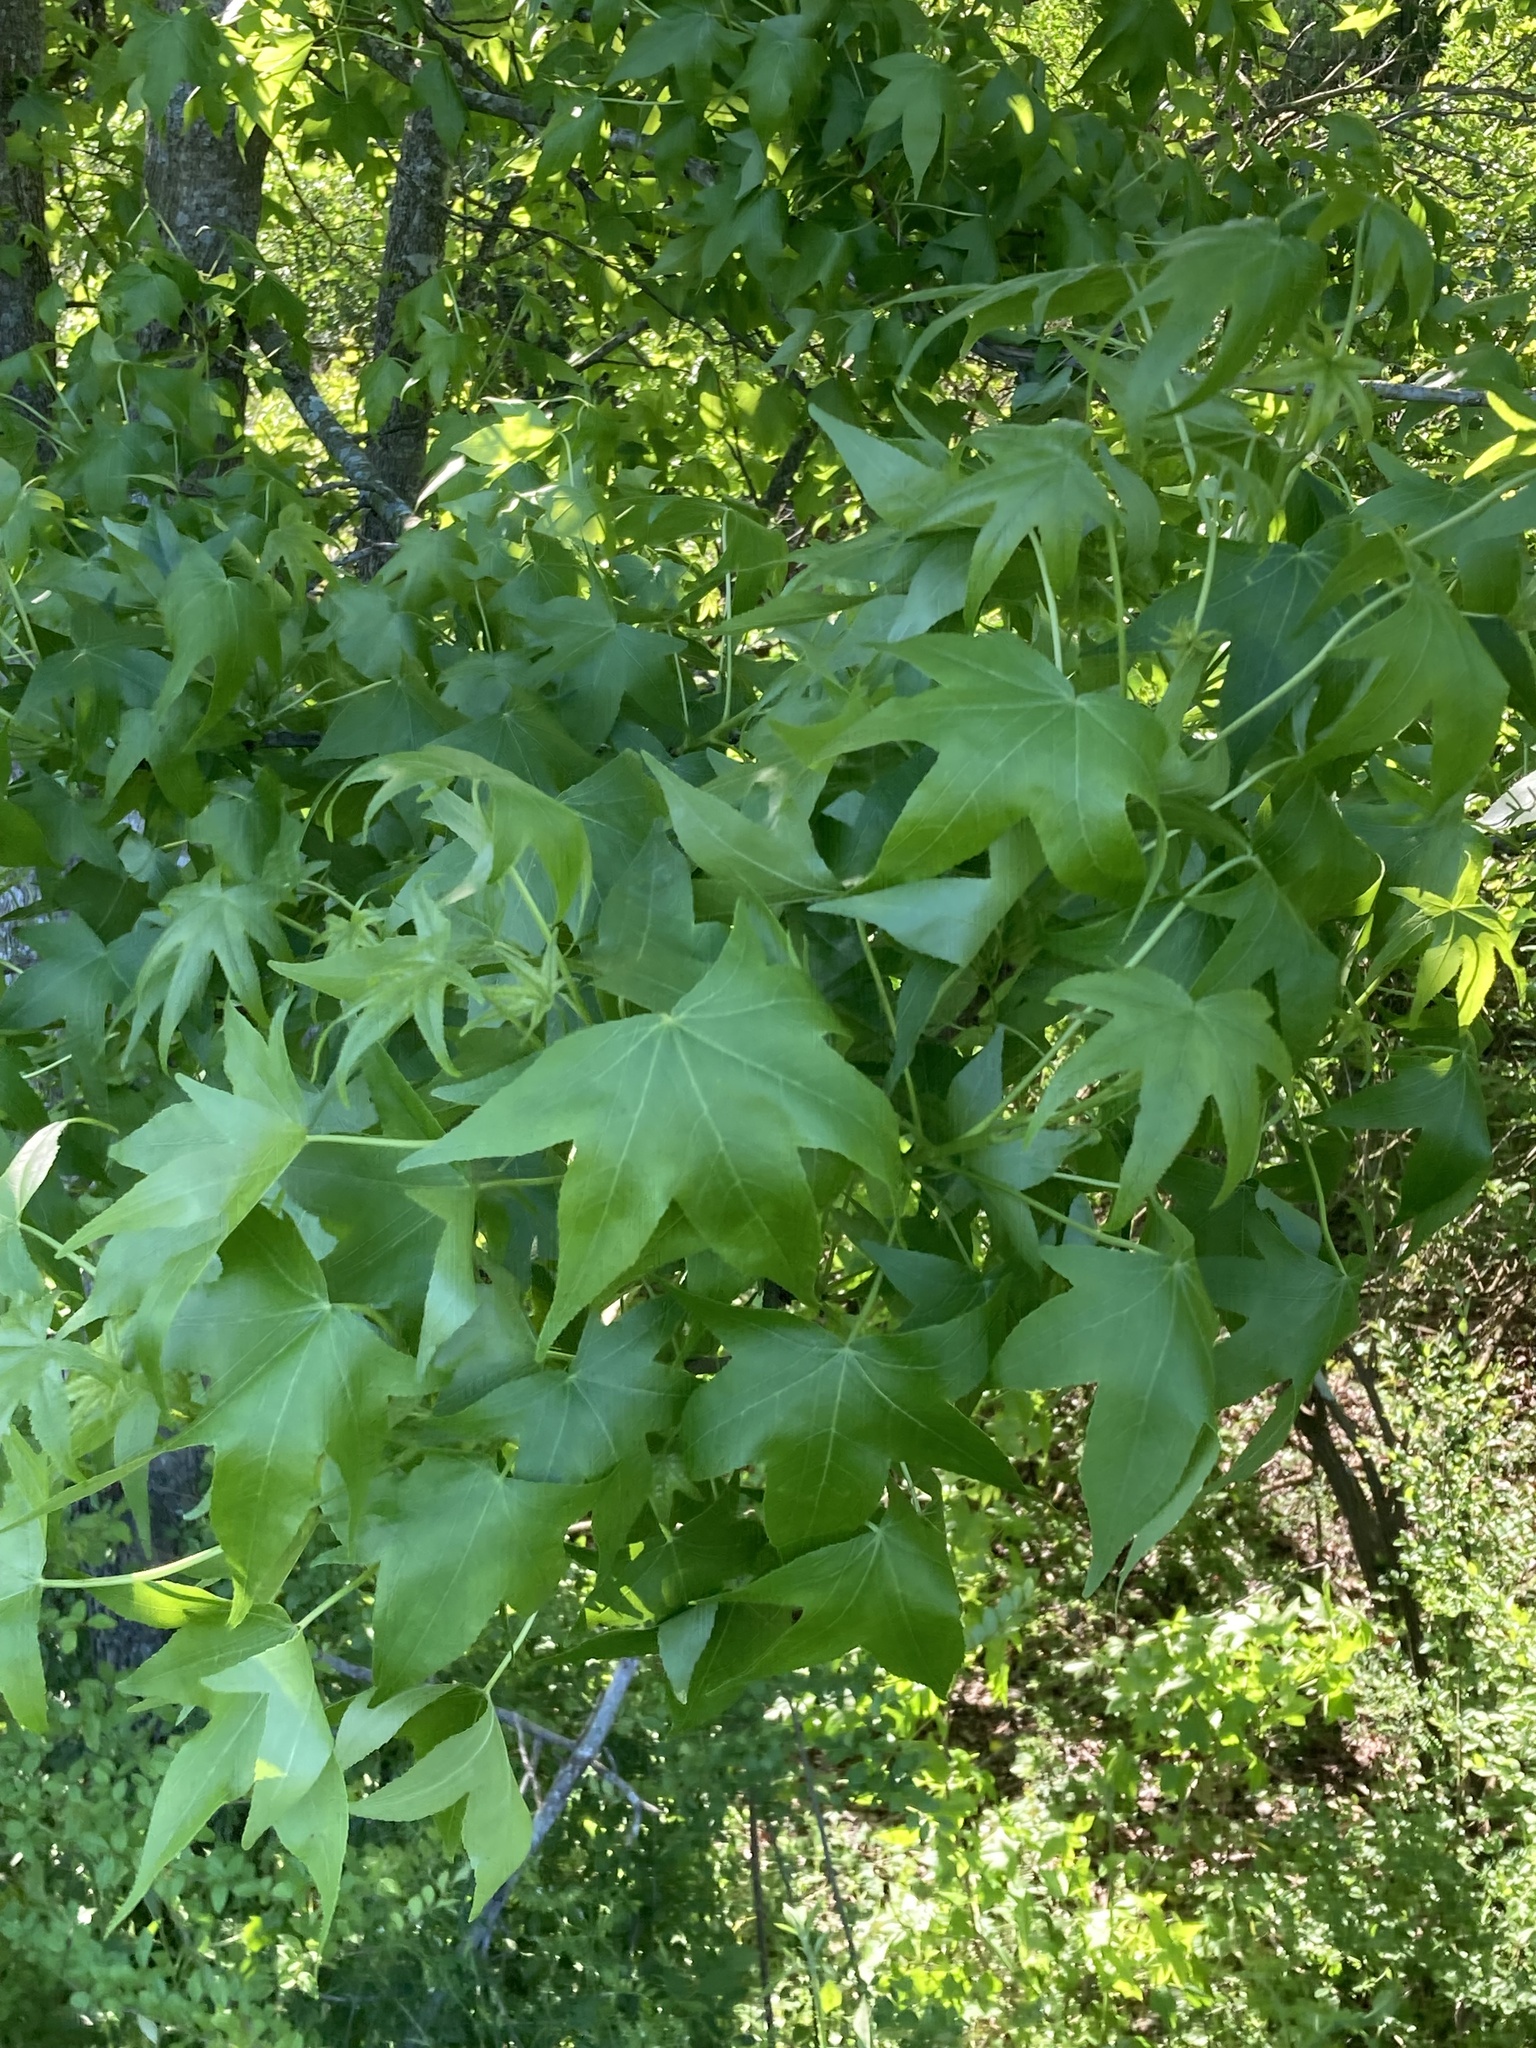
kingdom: Plantae
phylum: Tracheophyta
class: Magnoliopsida
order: Saxifragales
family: Altingiaceae
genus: Liquidambar
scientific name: Liquidambar styraciflua
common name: Sweet gum
